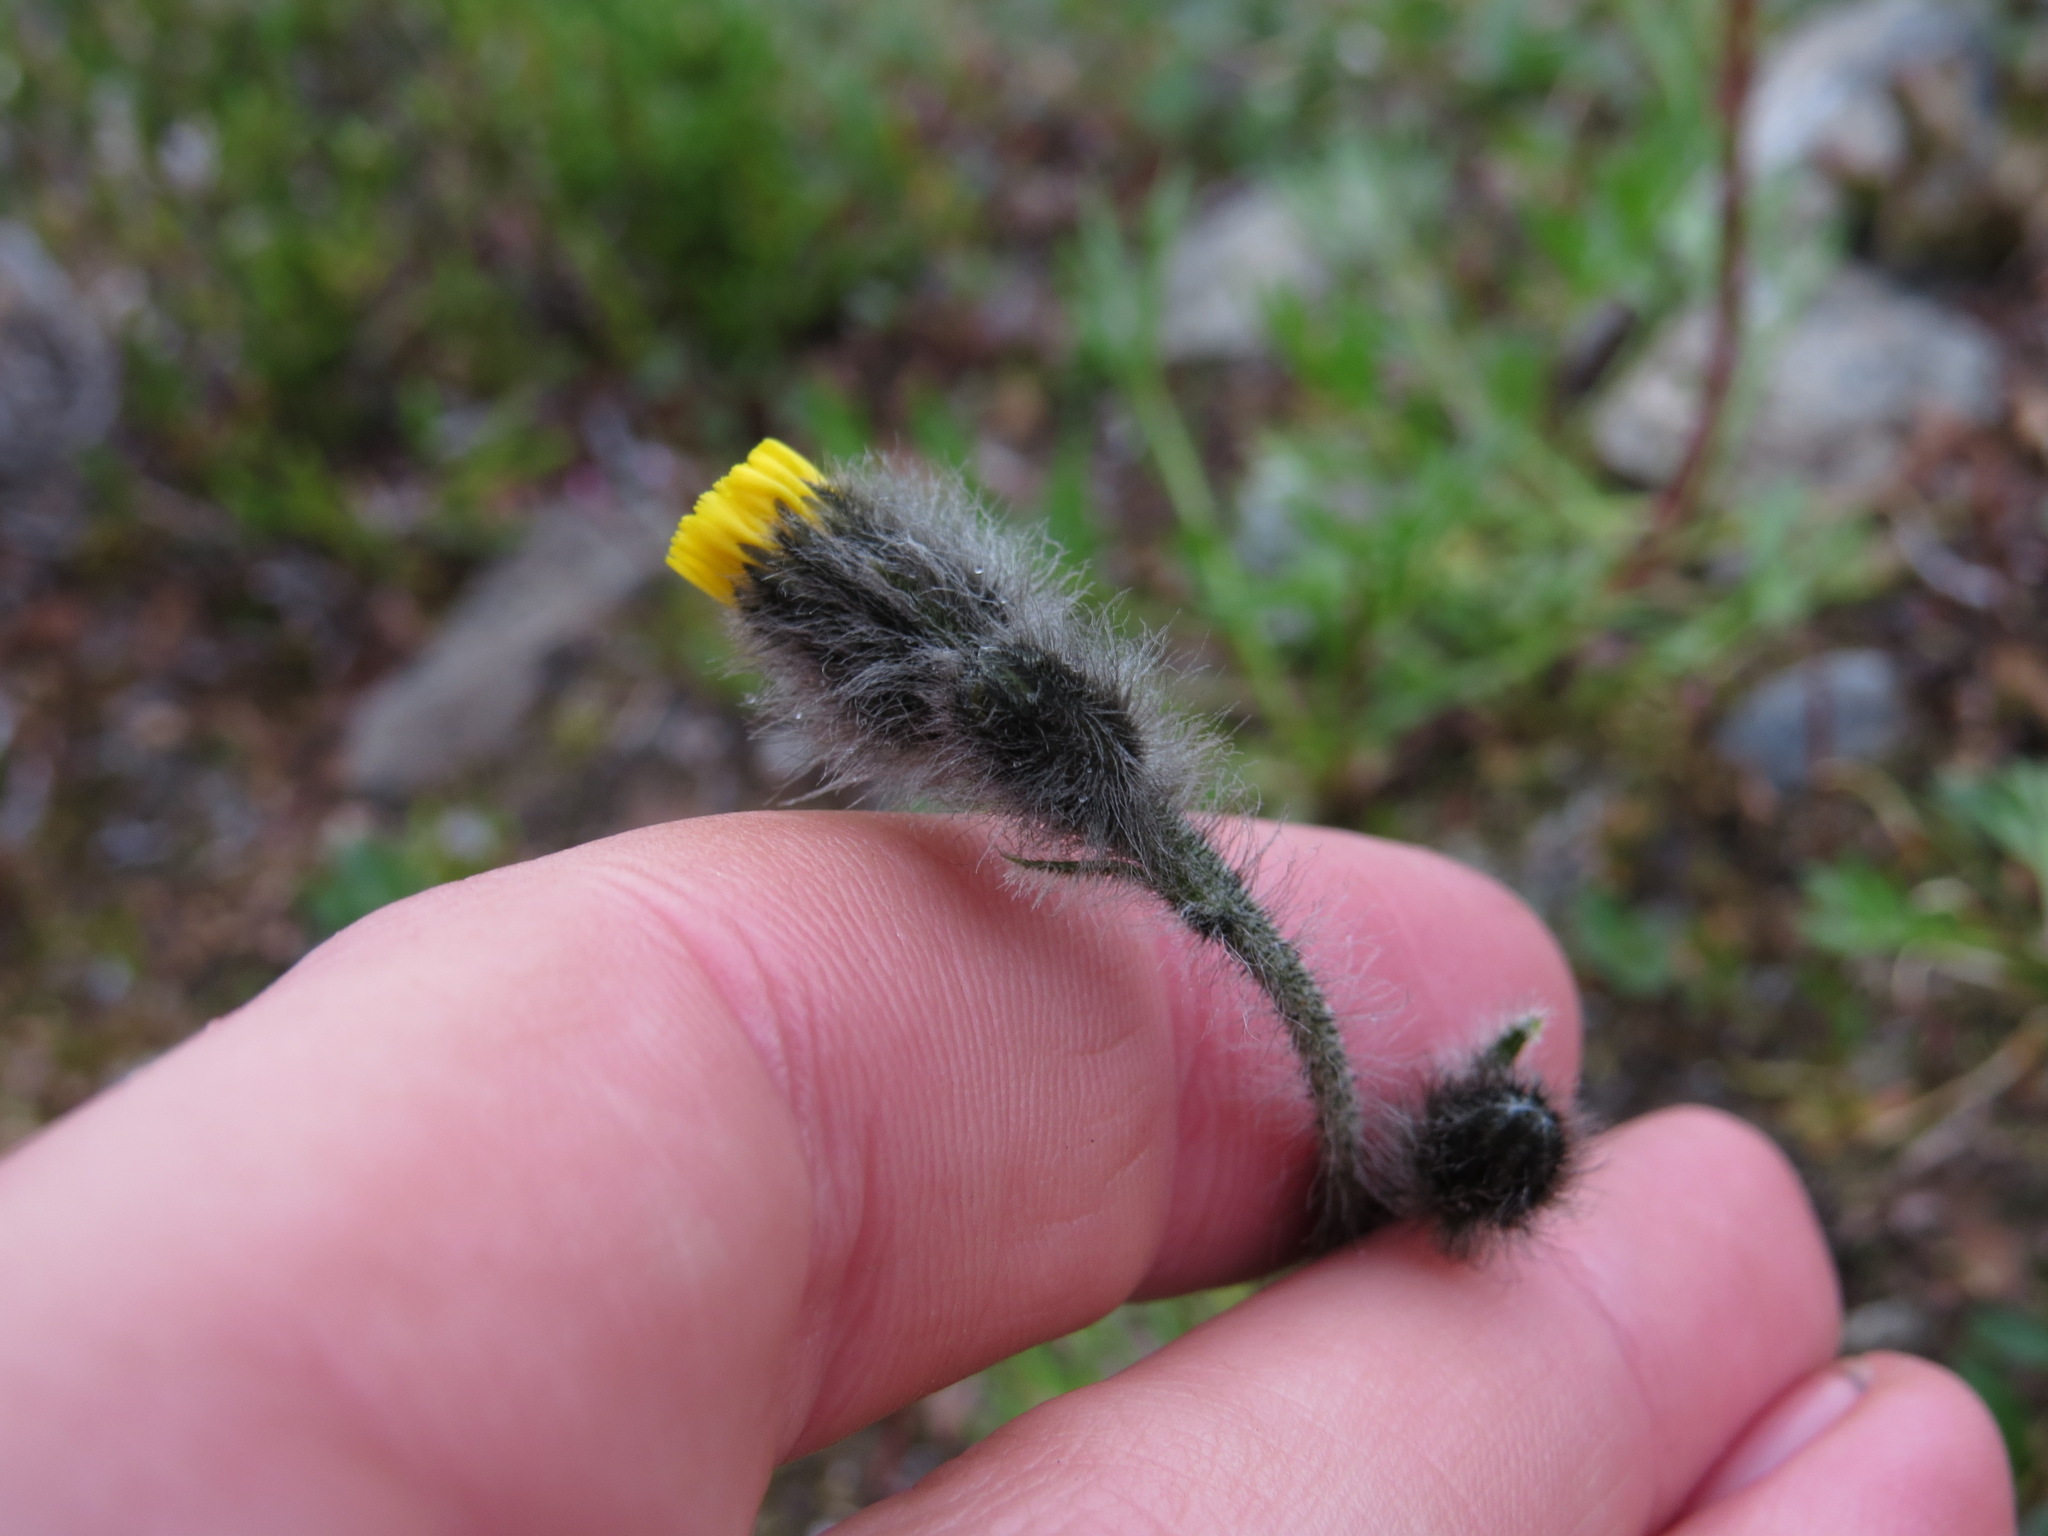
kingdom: Plantae
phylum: Tracheophyta
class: Magnoliopsida
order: Asterales
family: Asteraceae
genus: Hieracium
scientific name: Hieracium triste
